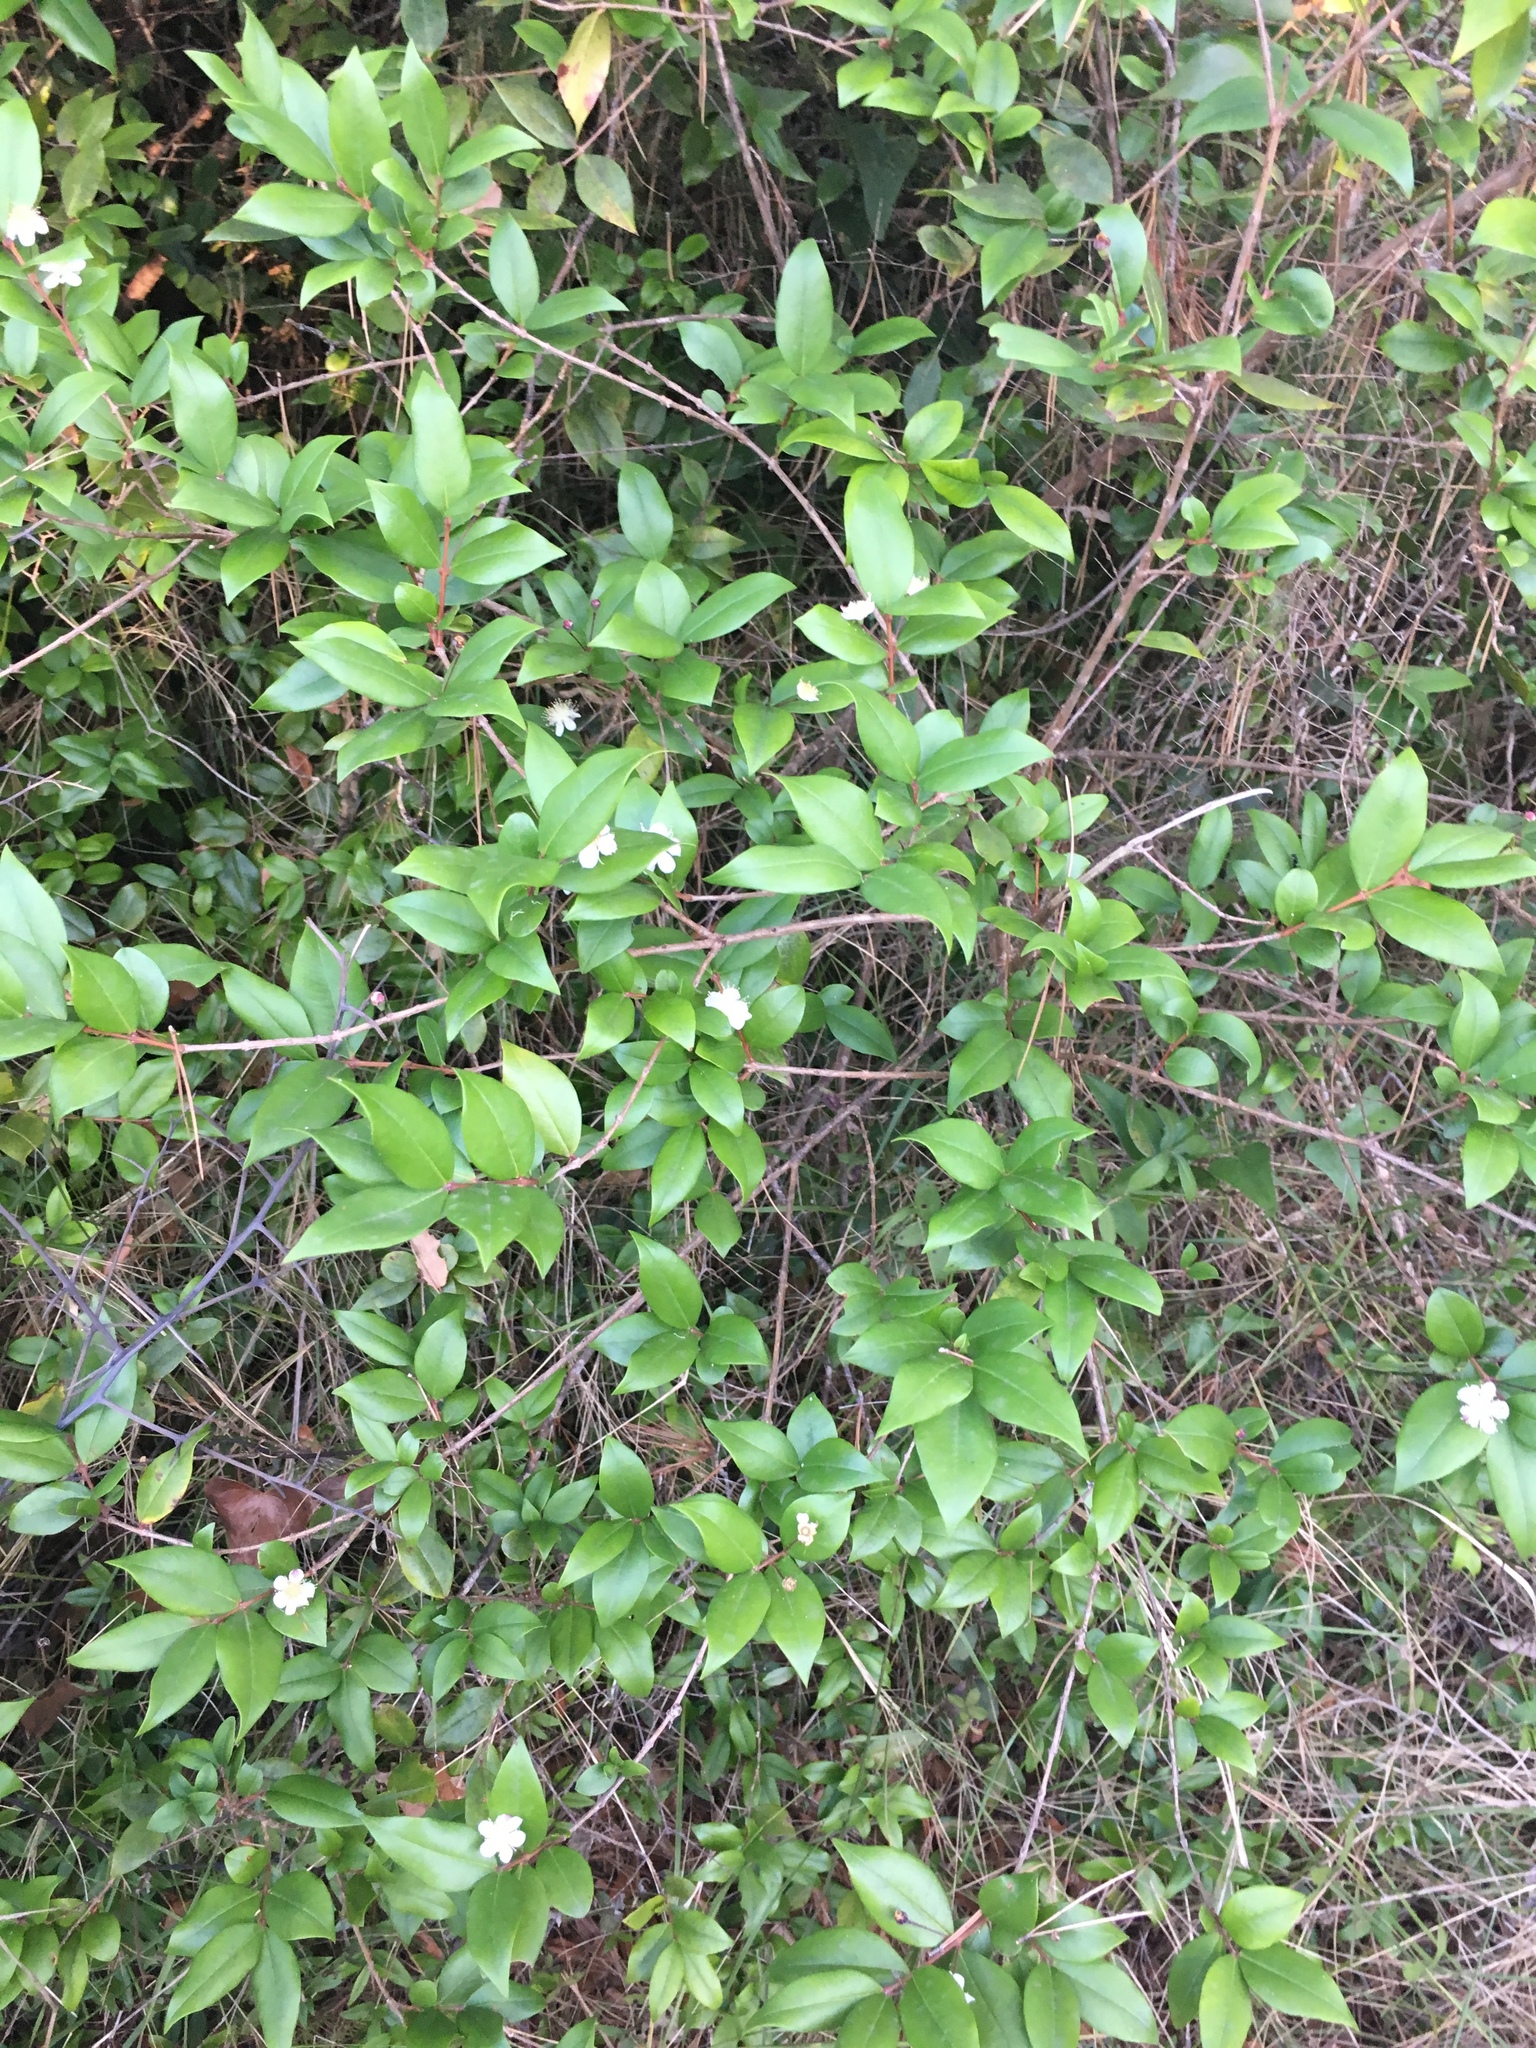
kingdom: Plantae
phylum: Tracheophyta
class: Magnoliopsida
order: Myrtales
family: Myrtaceae
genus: Myrtus
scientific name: Myrtus communis
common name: Myrtle
